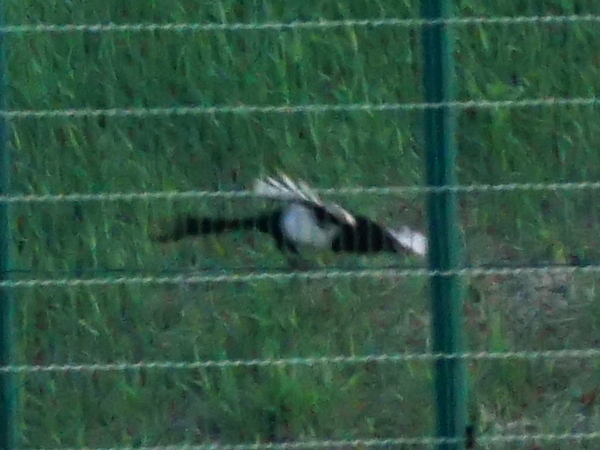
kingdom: Animalia
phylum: Chordata
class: Aves
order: Passeriformes
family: Corvidae
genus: Pica
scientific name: Pica pica
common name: Eurasian magpie
